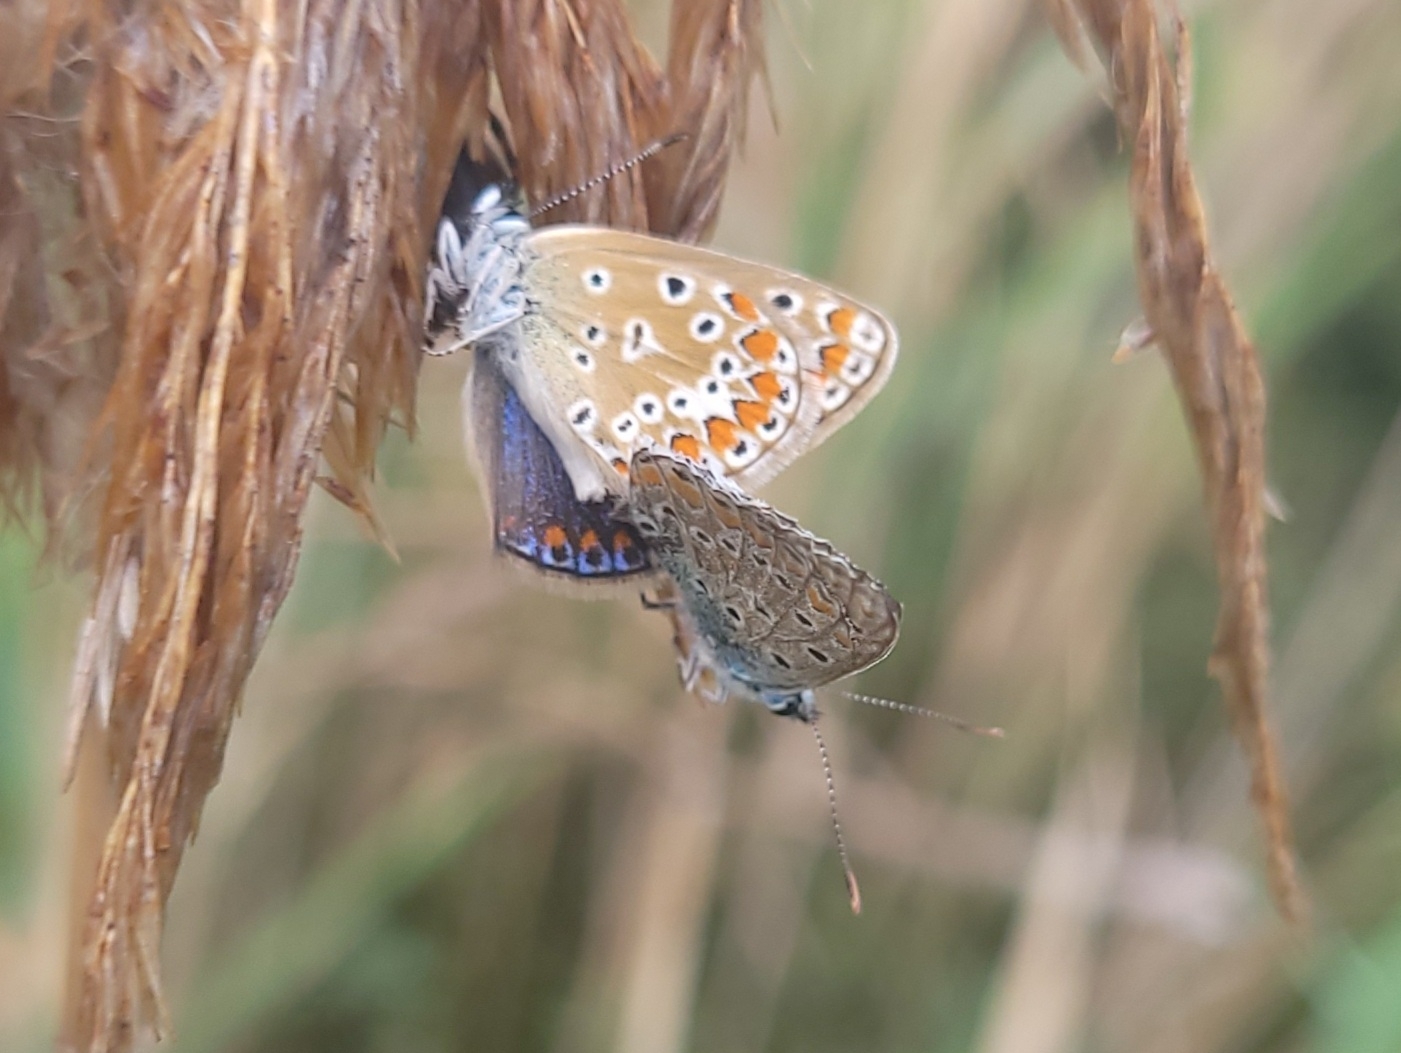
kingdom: Animalia
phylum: Arthropoda
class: Insecta
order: Lepidoptera
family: Lycaenidae
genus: Polyommatus
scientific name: Polyommatus icarus
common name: Common blue
